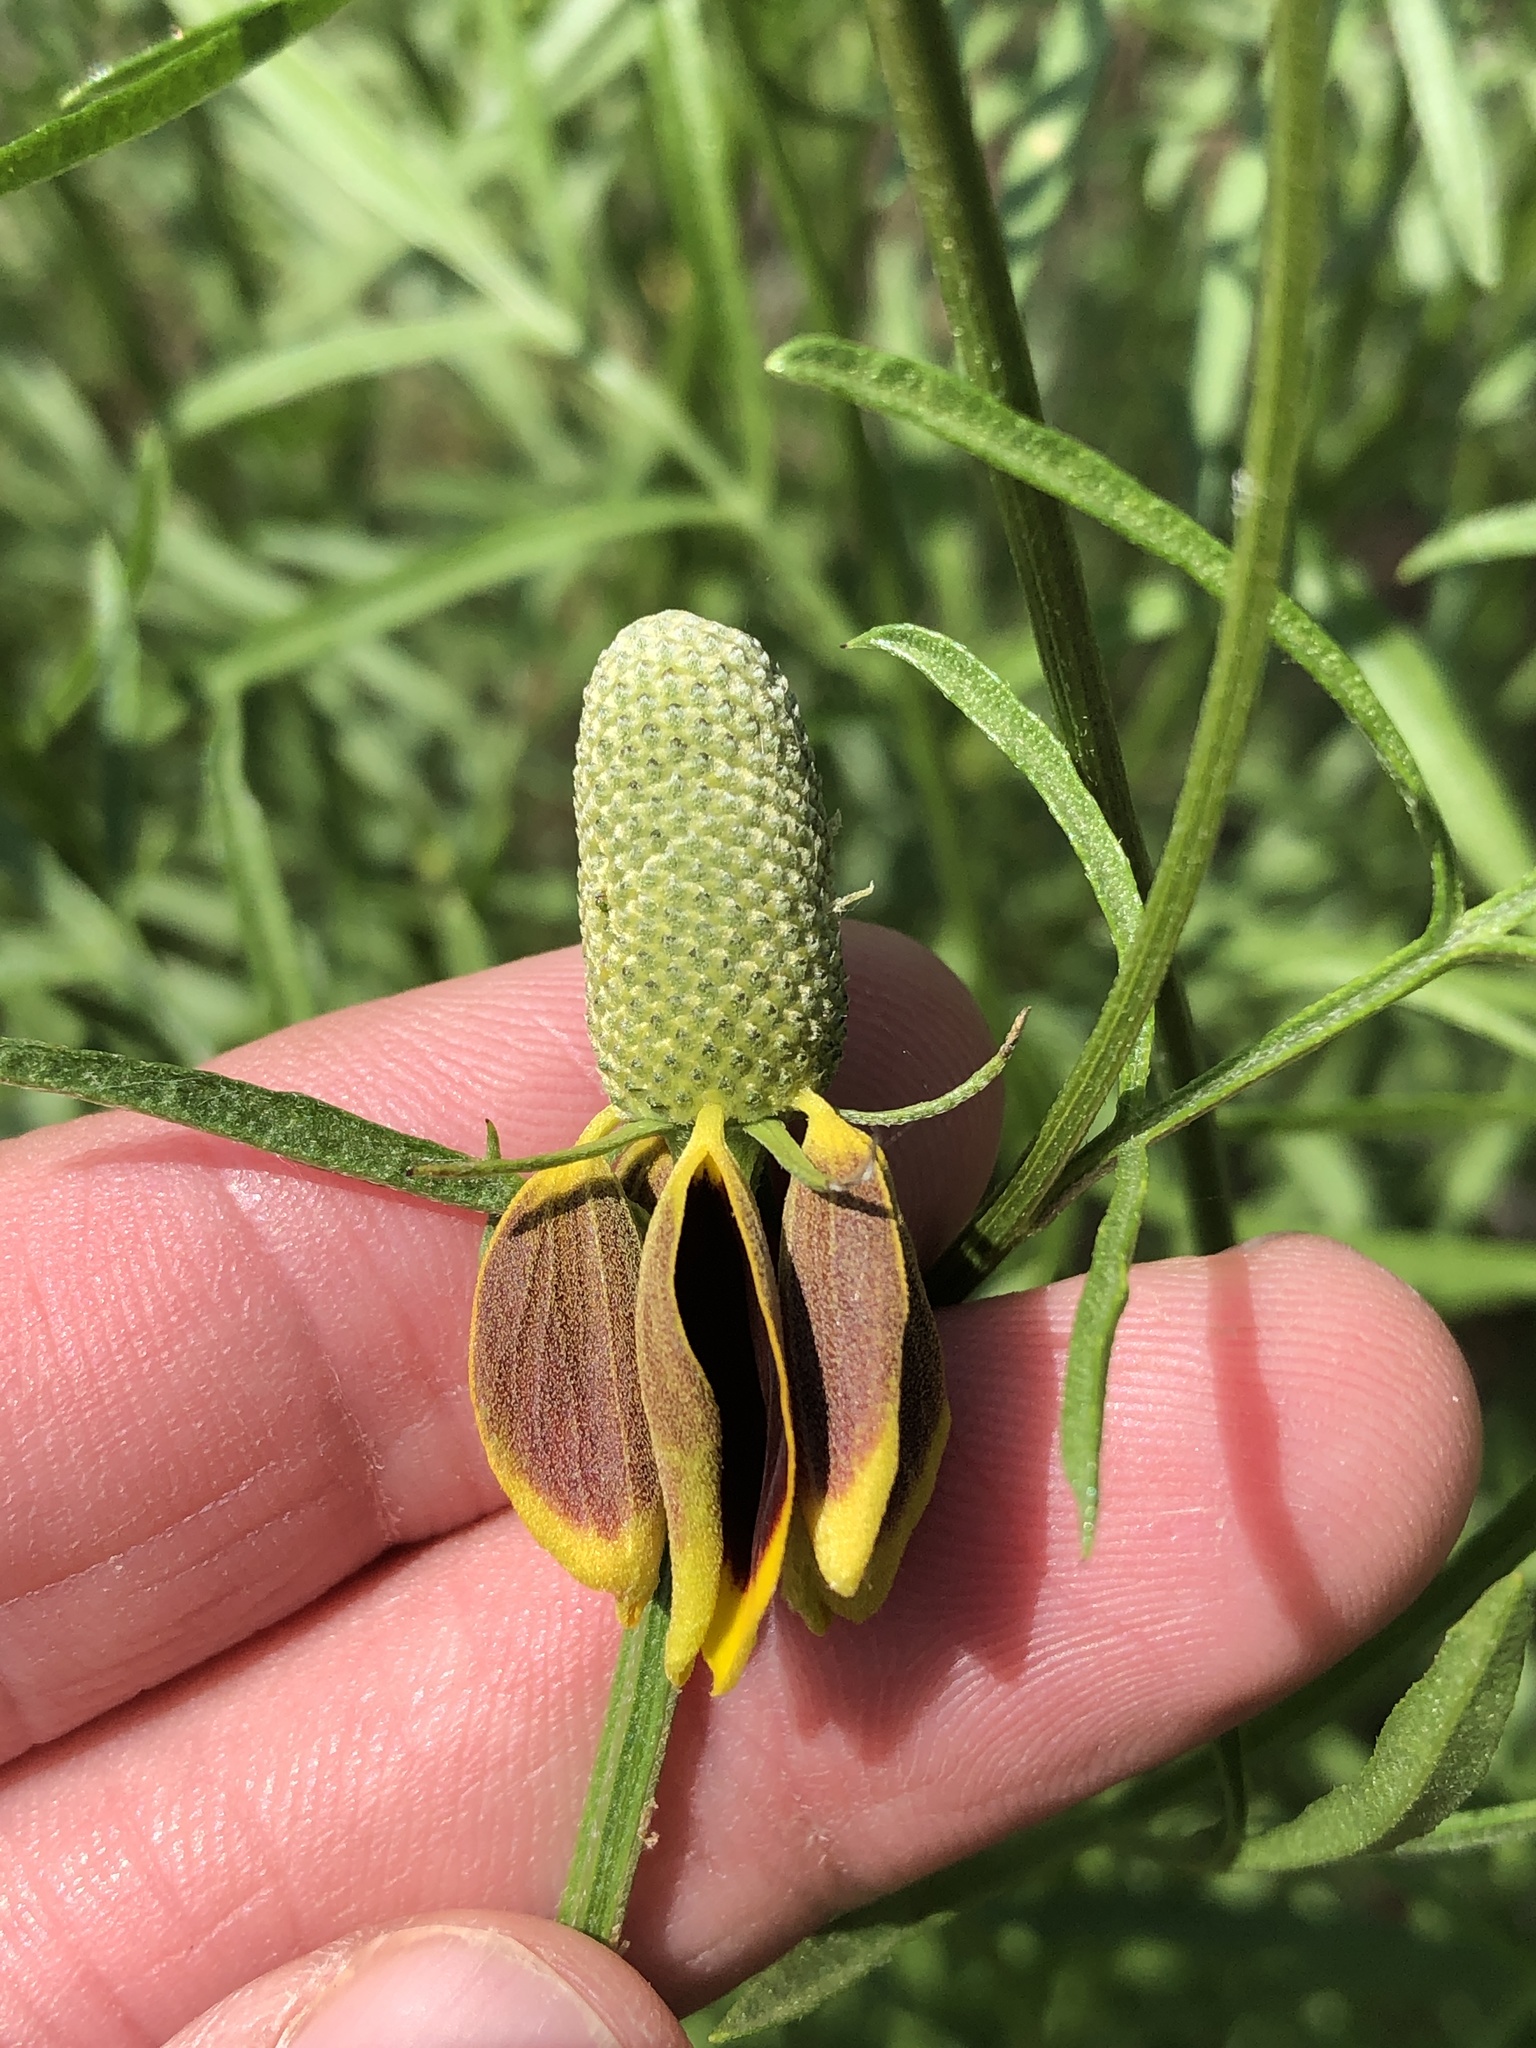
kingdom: Plantae
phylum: Tracheophyta
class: Magnoliopsida
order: Asterales
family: Asteraceae
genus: Ratibida
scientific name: Ratibida columnifera
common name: Prairie coneflower
